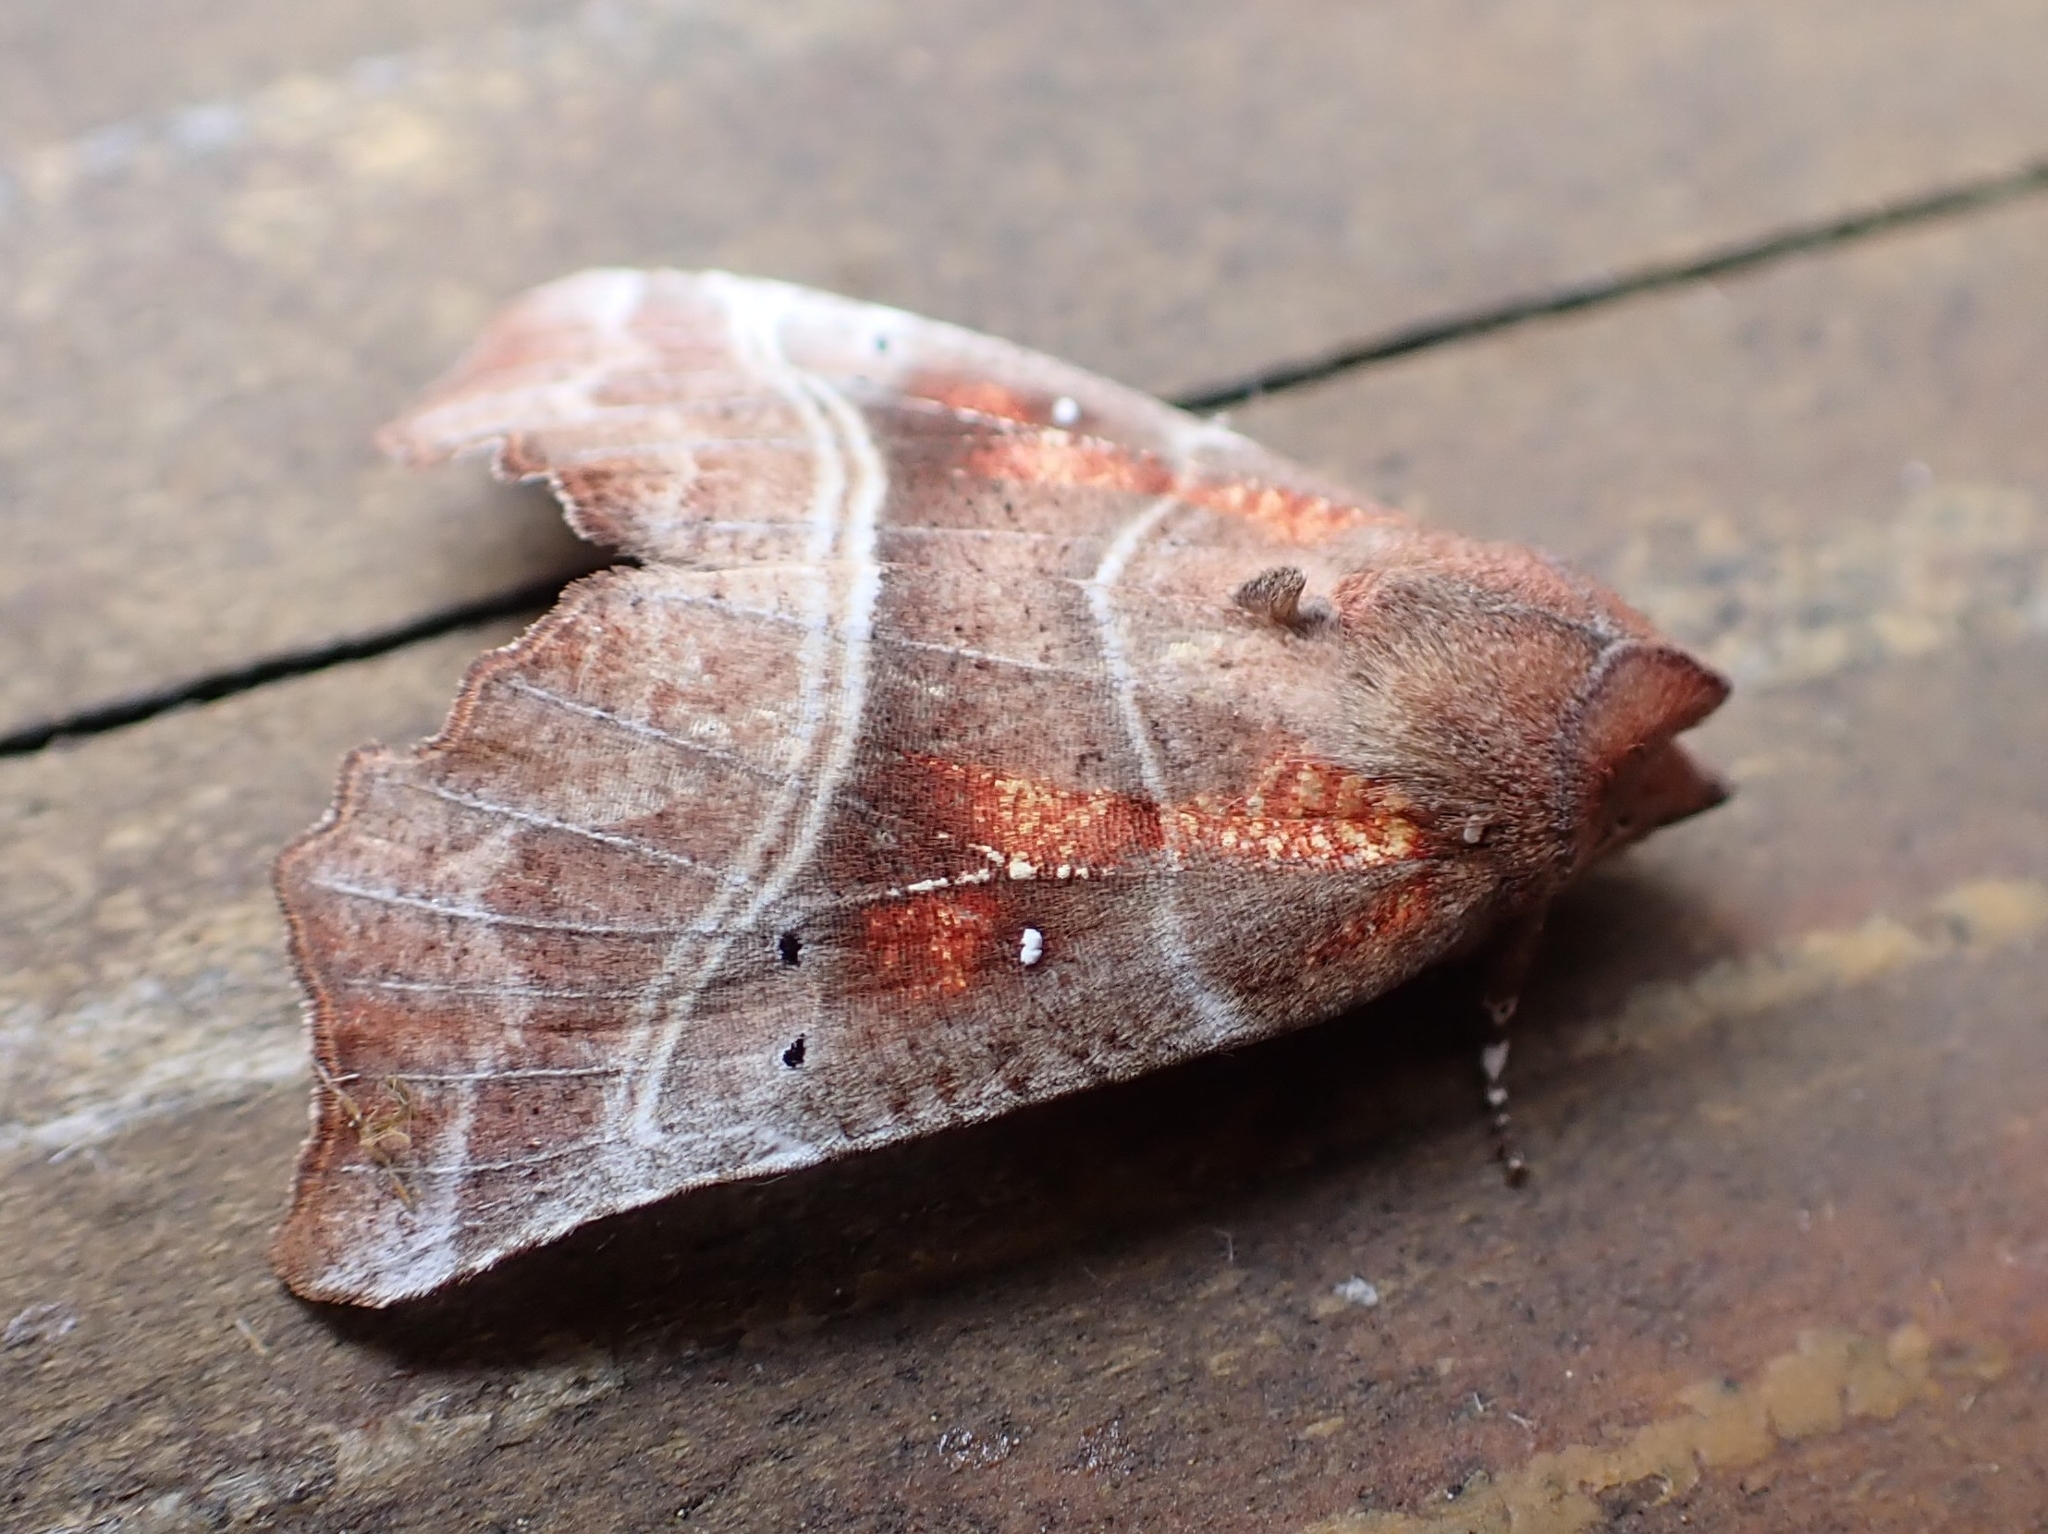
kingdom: Animalia
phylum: Arthropoda
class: Insecta
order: Lepidoptera
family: Erebidae
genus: Scoliopteryx
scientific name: Scoliopteryx libatrix
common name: Herald
